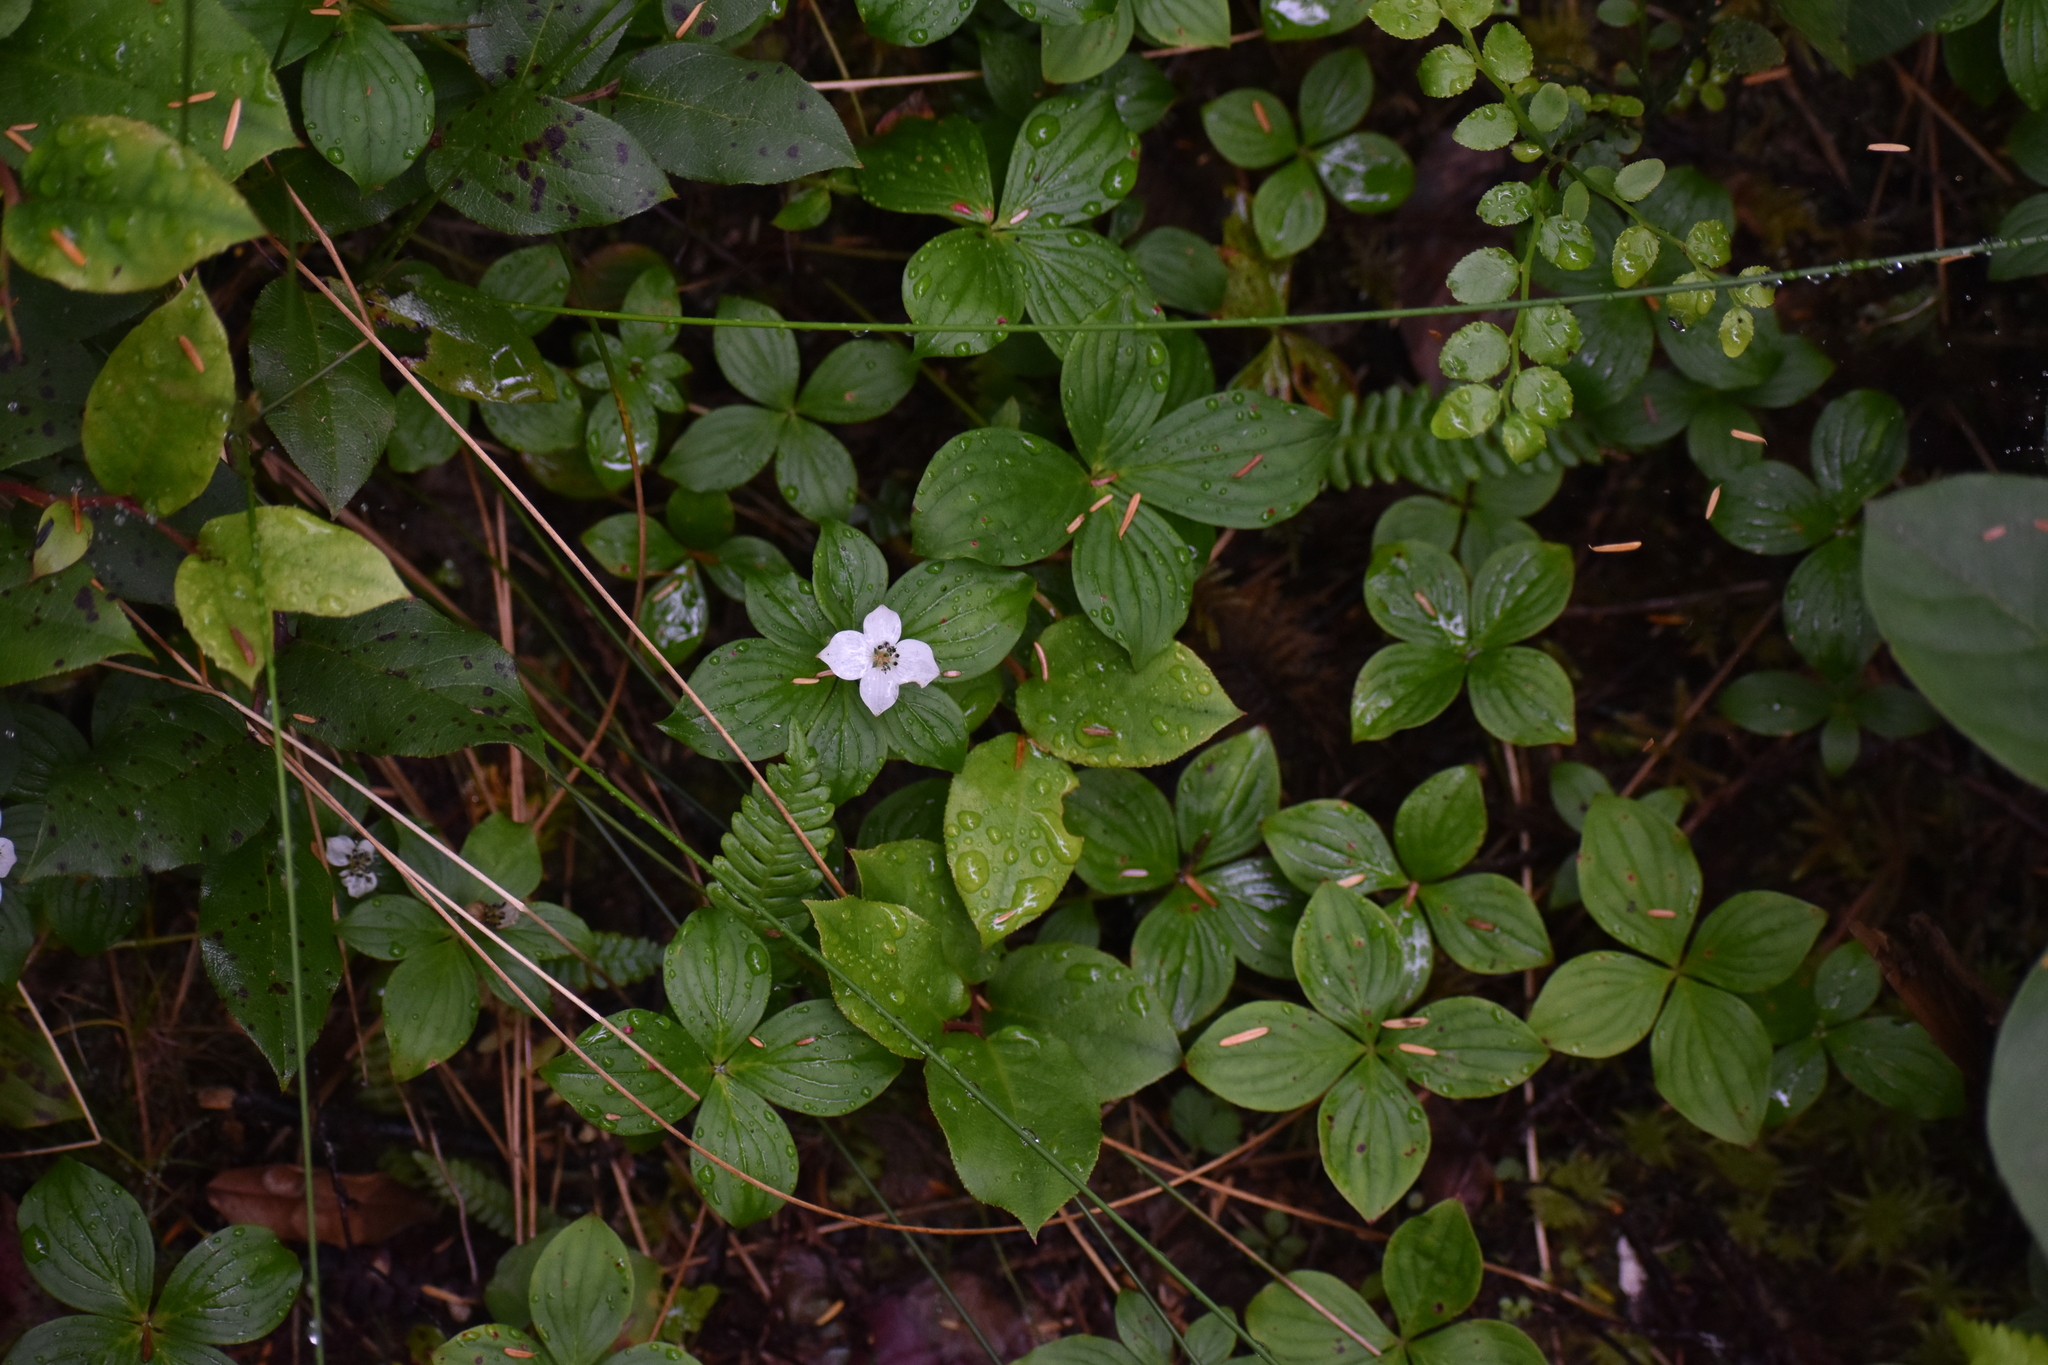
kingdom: Plantae
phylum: Tracheophyta
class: Magnoliopsida
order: Cornales
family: Cornaceae
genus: Cornus
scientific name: Cornus unalaschkensis
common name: Alaska bunchberry
